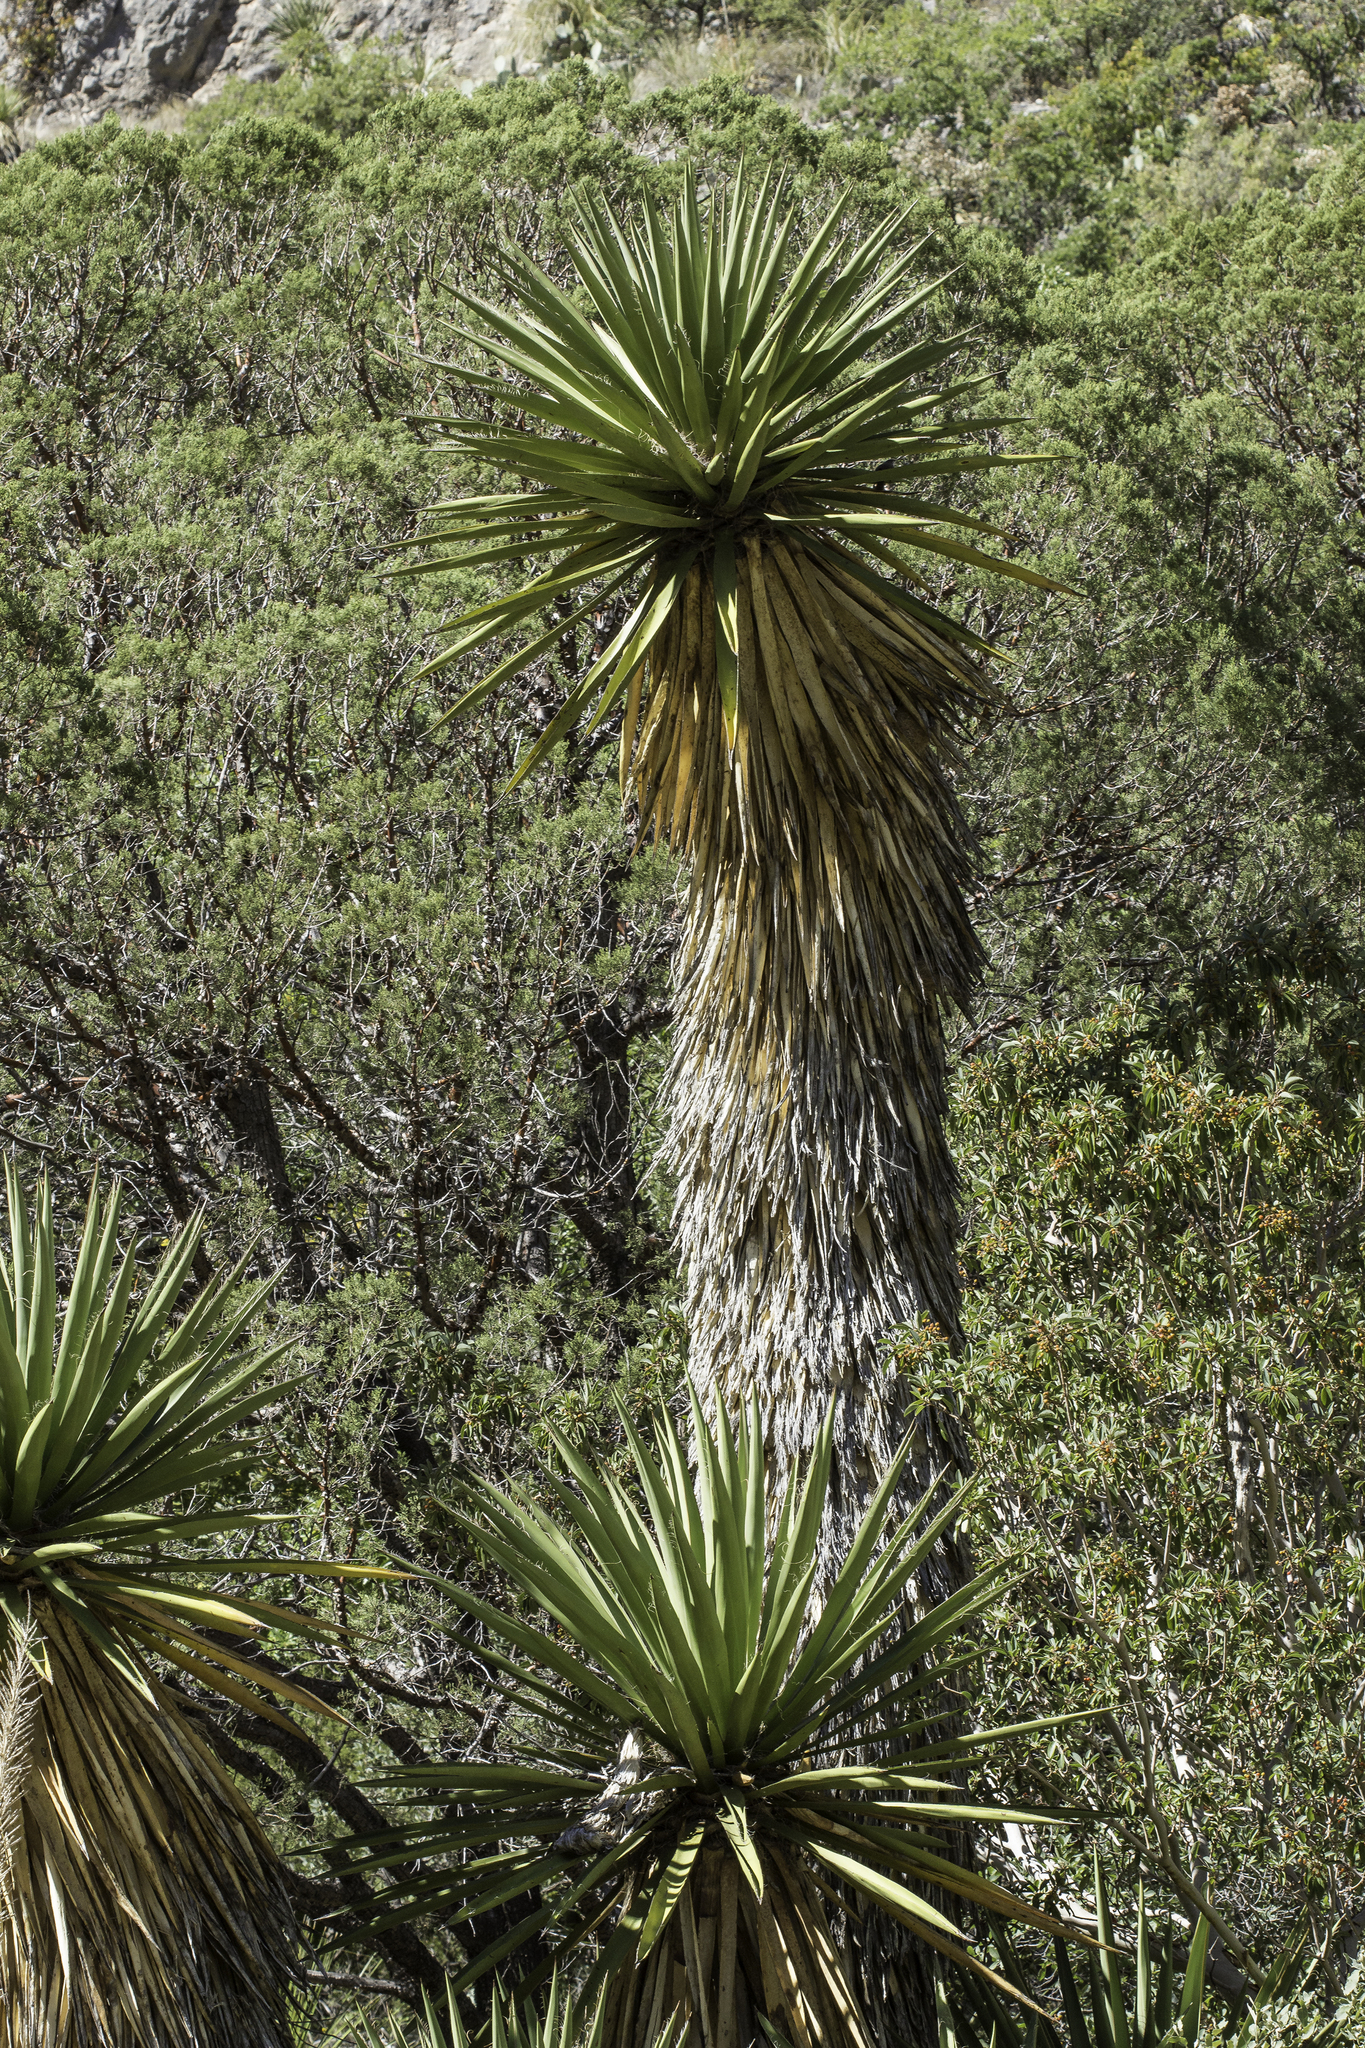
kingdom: Plantae
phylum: Tracheophyta
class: Liliopsida
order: Asparagales
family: Asparagaceae
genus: Yucca
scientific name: Yucca faxoniana
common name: Spanish dagger
